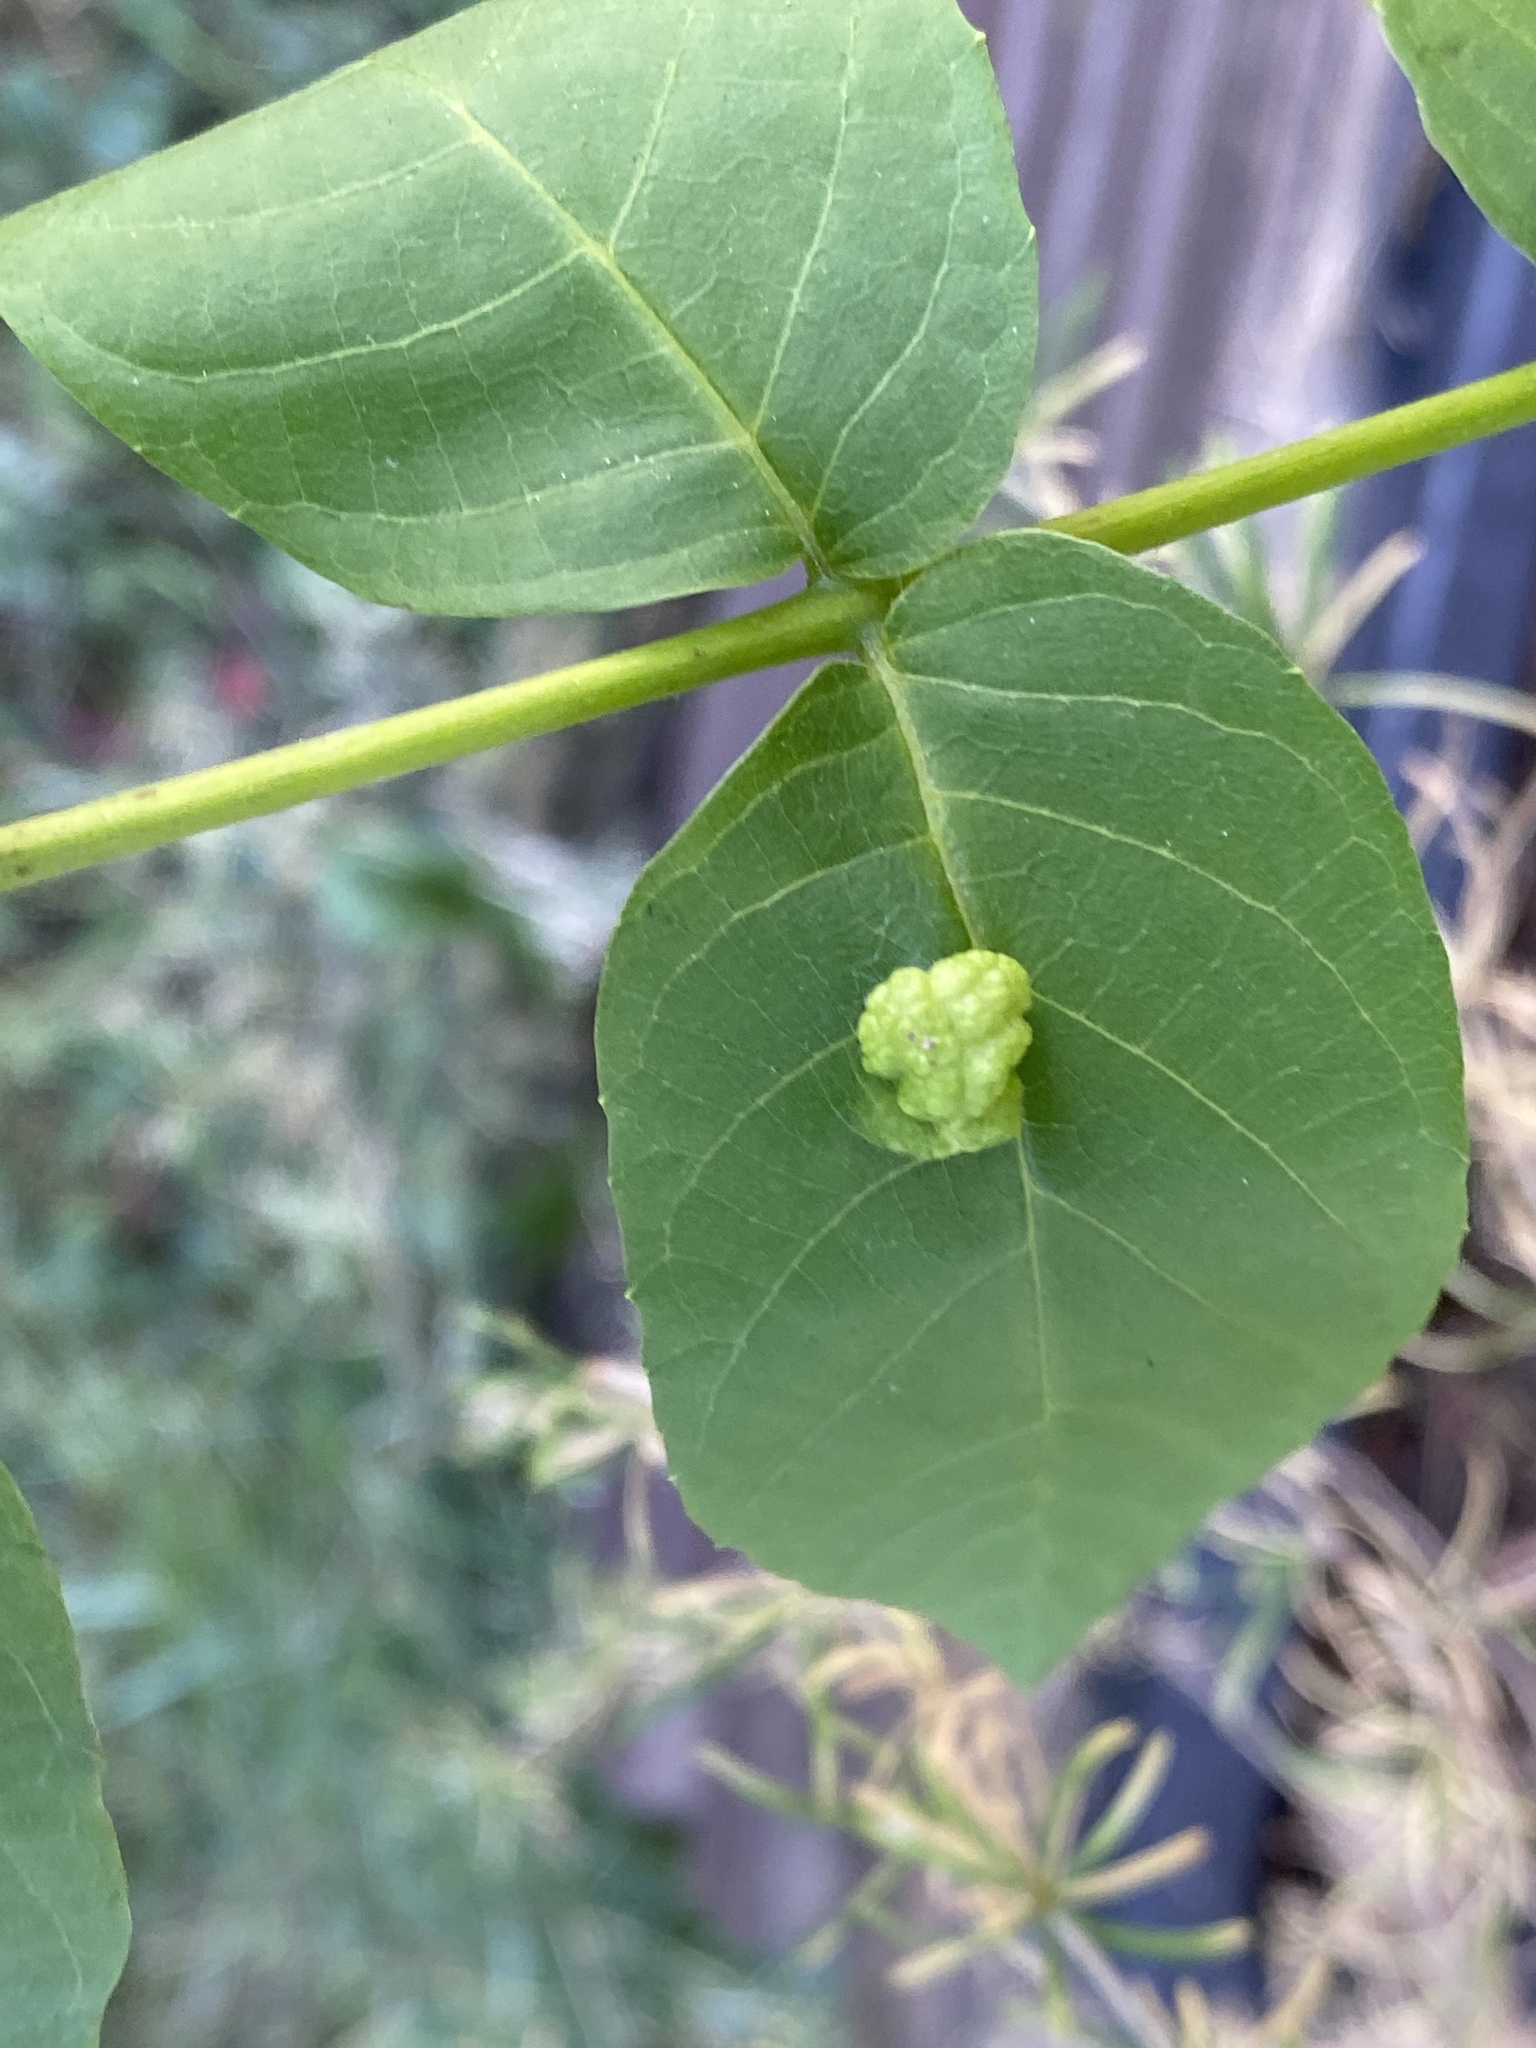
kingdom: Animalia
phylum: Arthropoda
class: Arachnida
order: Trombidiformes
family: Eriophyidae
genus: Aceria
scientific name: Aceria erinea
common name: Persian walnut erineum mite
